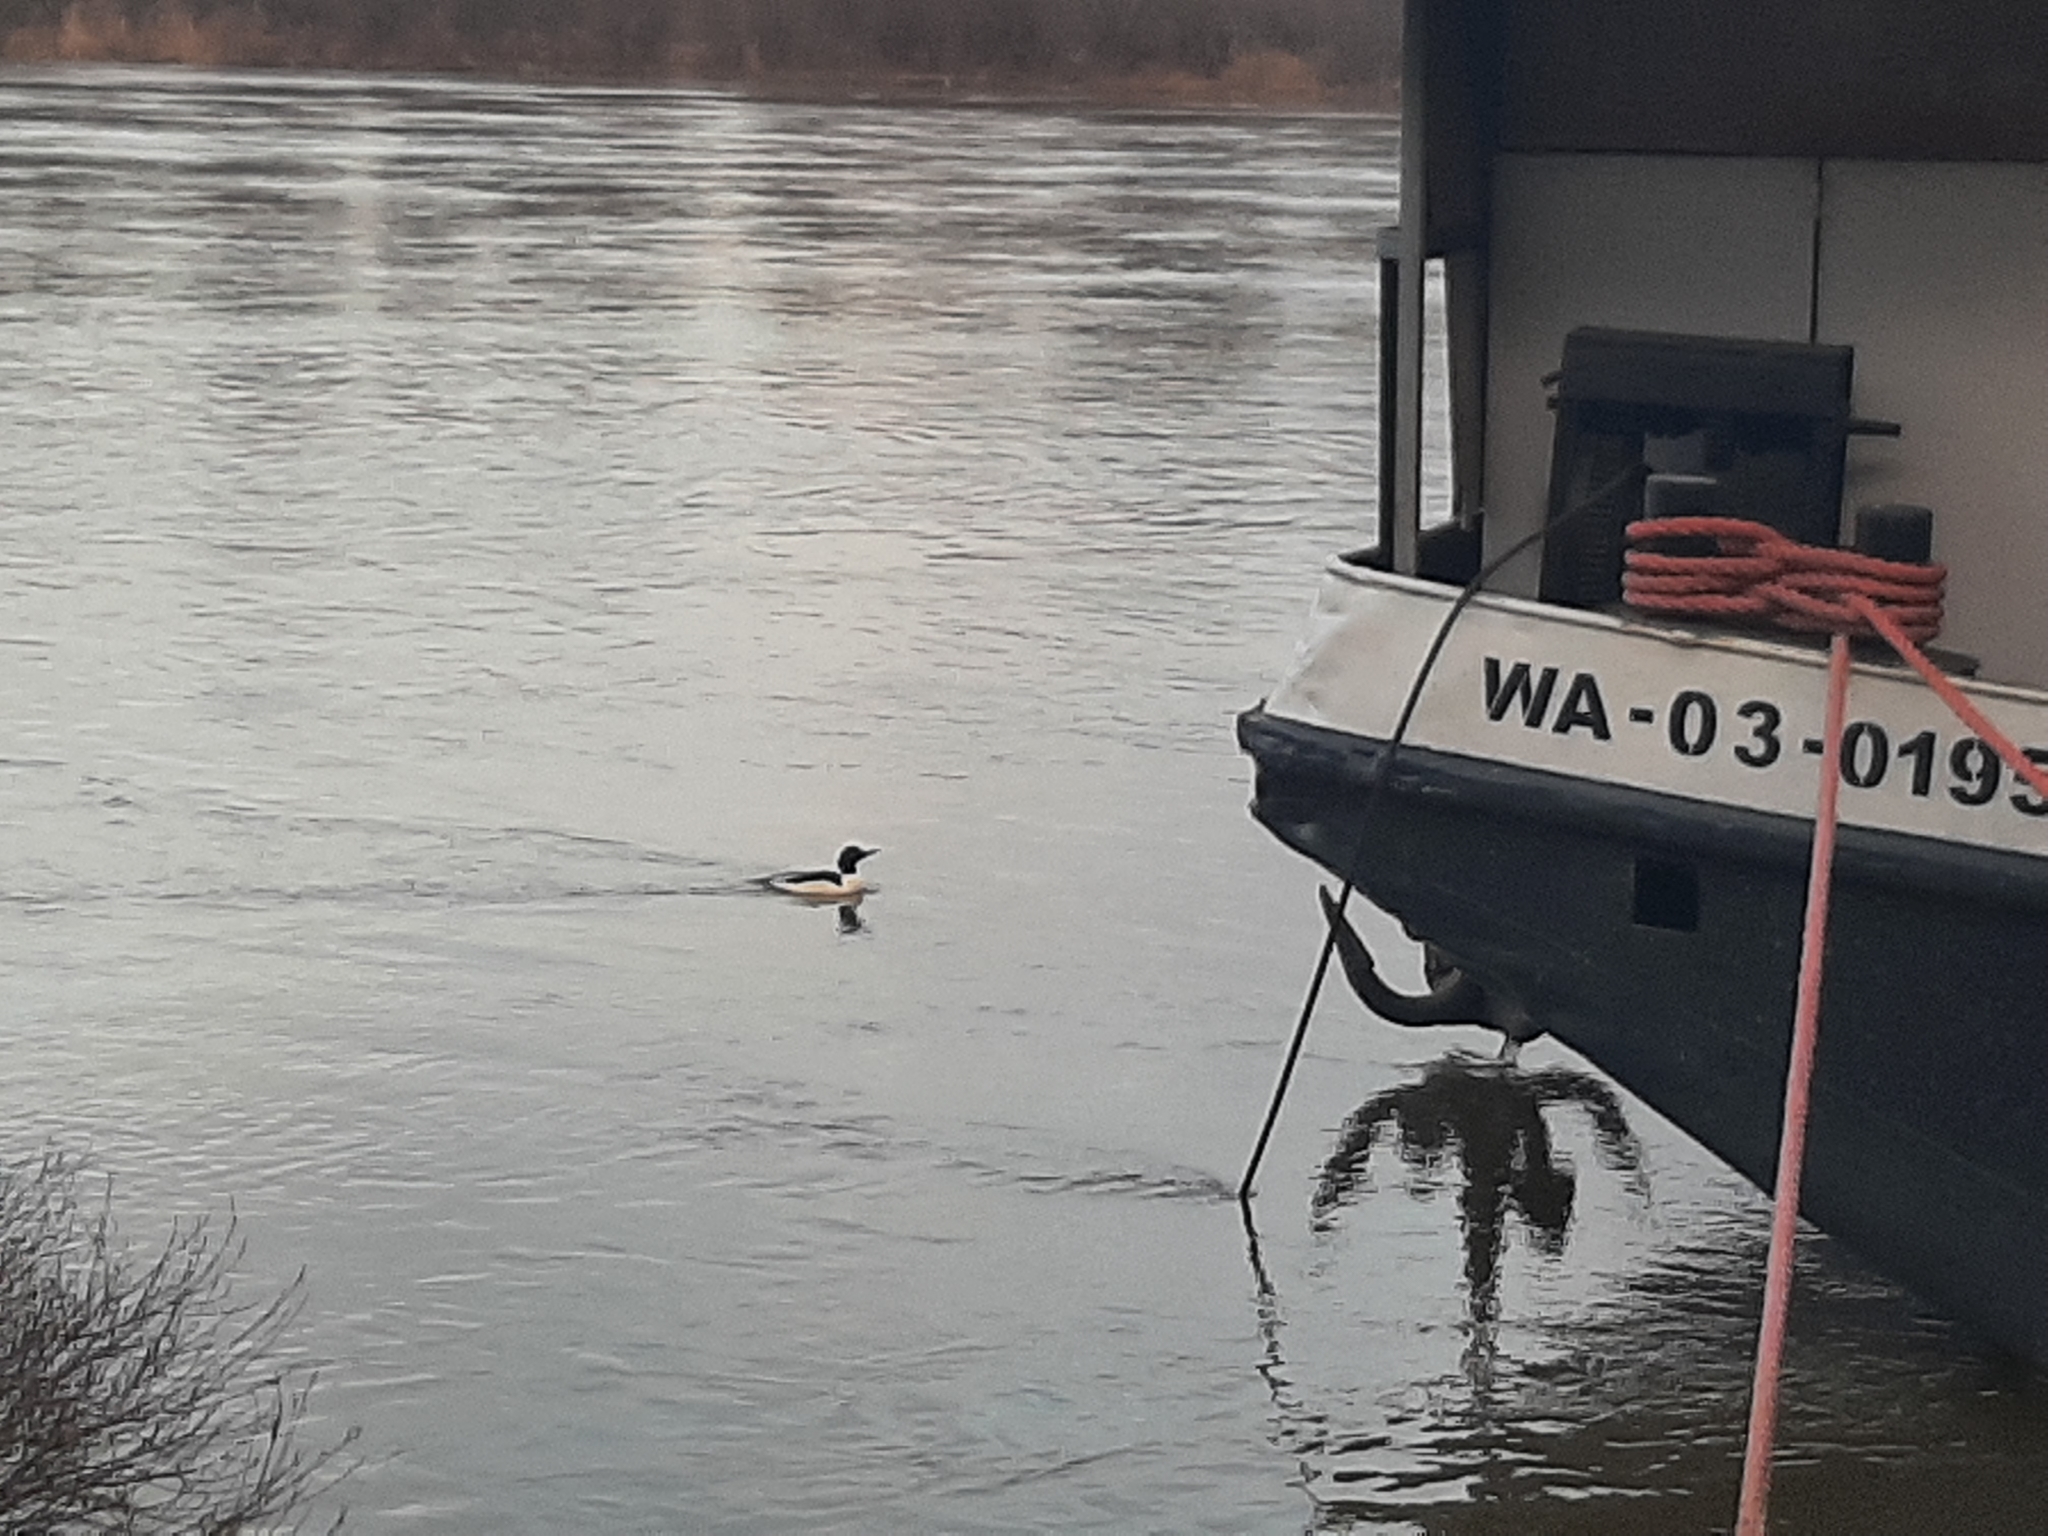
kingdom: Animalia
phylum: Chordata
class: Aves
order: Anseriformes
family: Anatidae
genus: Mergus
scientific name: Mergus merganser
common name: Common merganser
